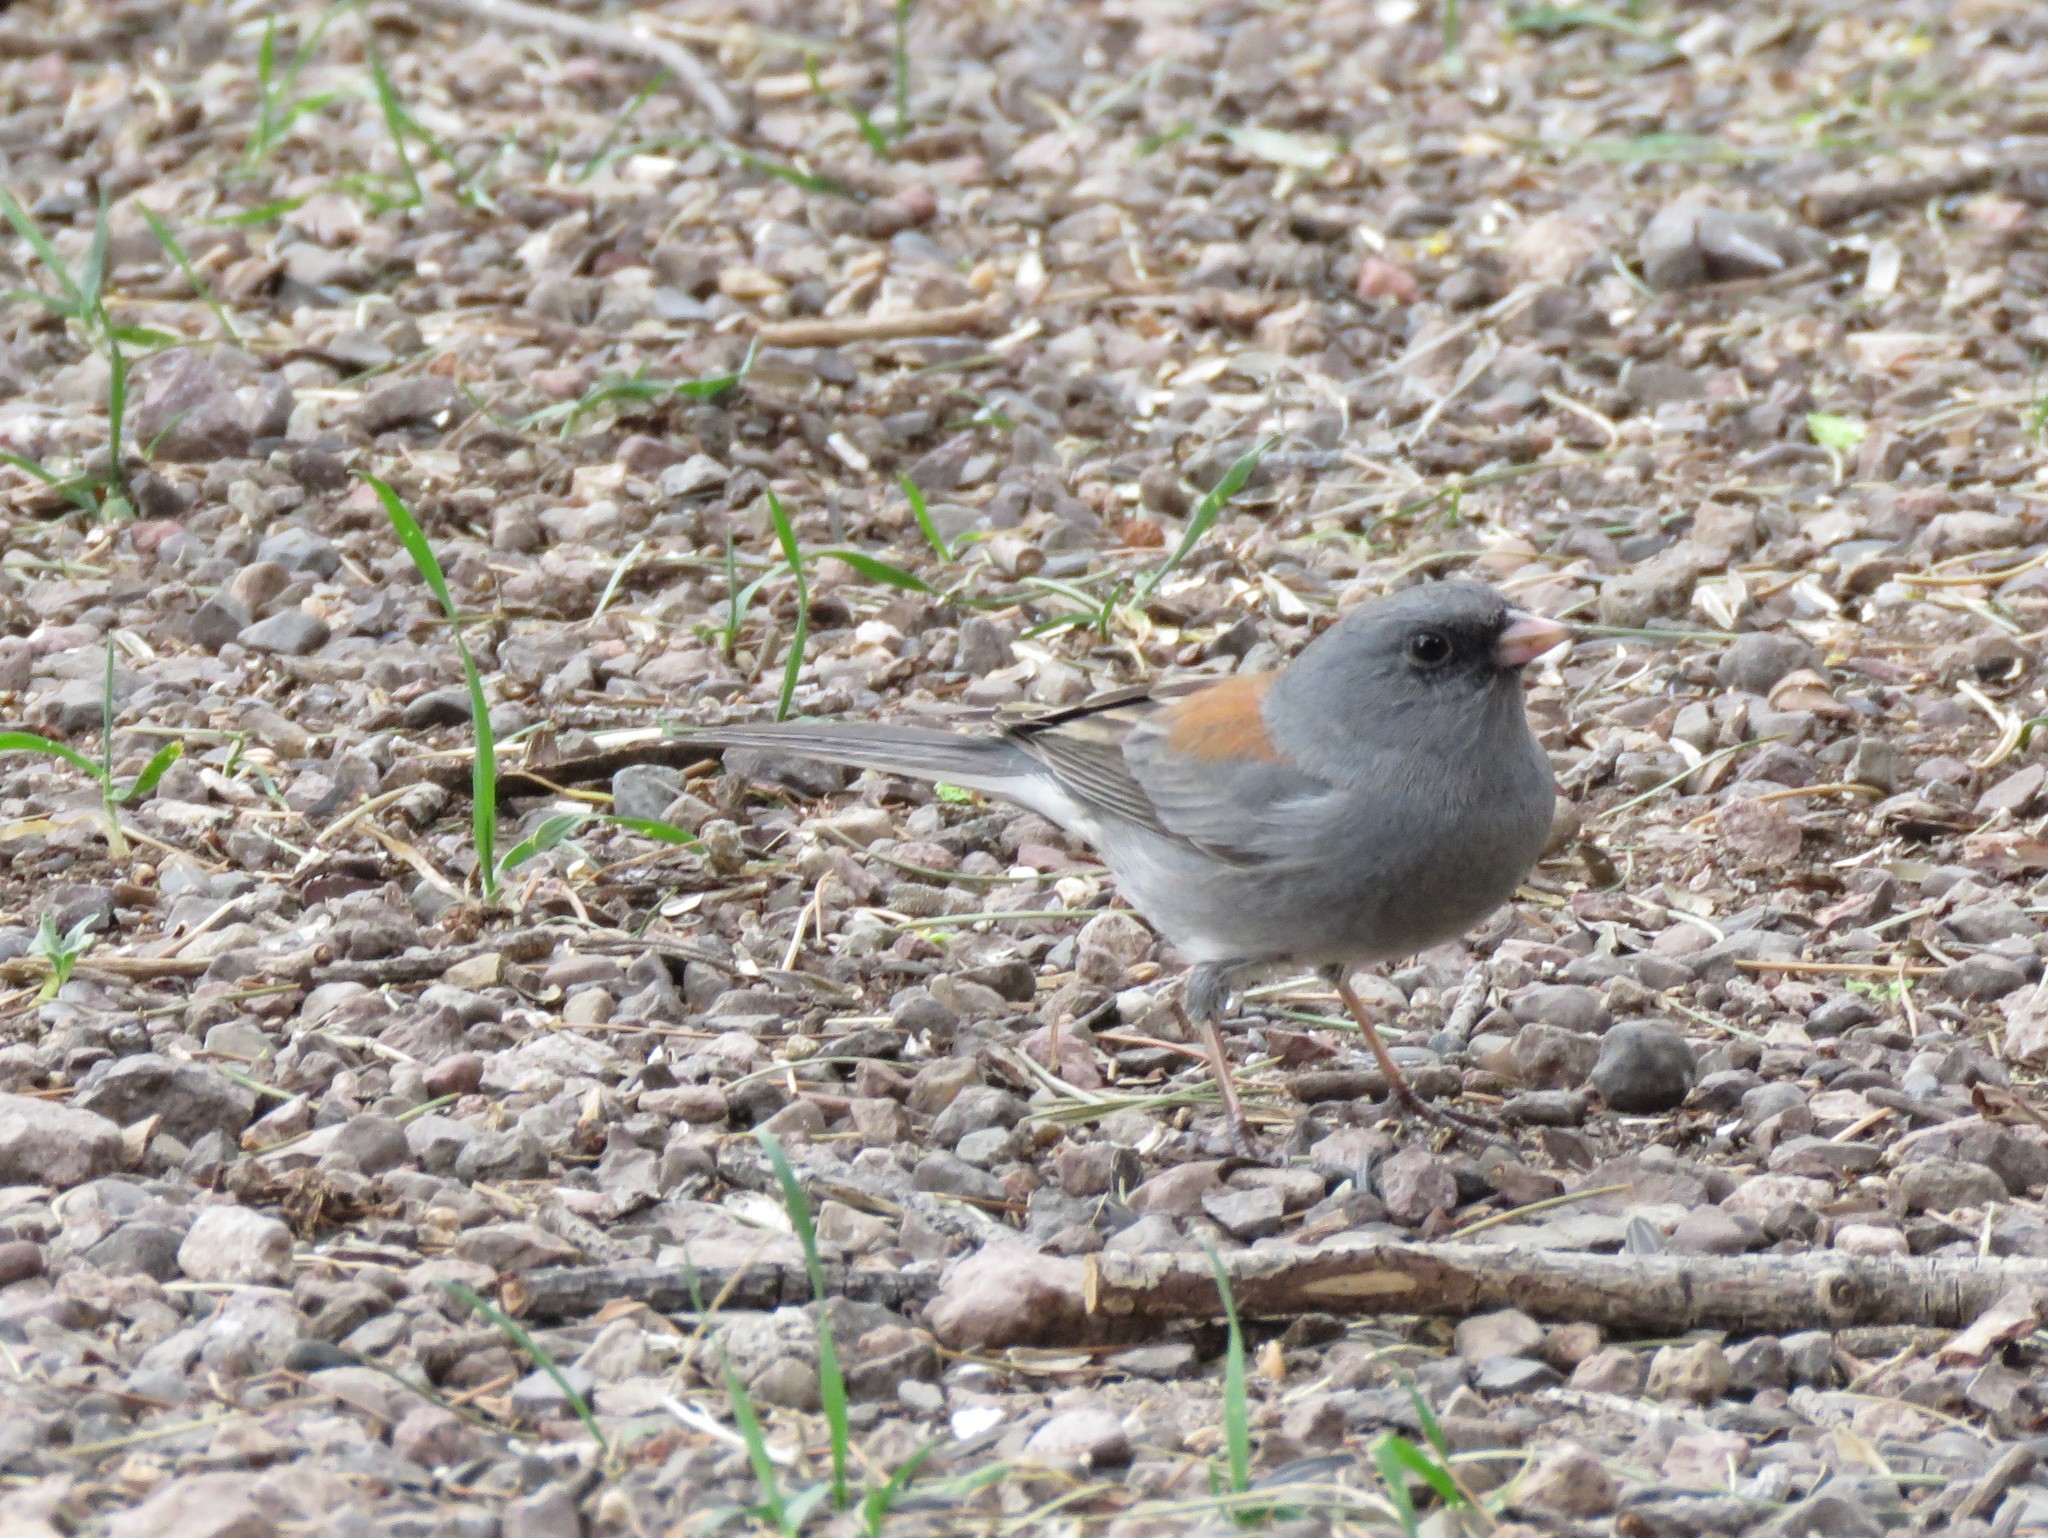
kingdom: Animalia
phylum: Chordata
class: Aves
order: Passeriformes
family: Passerellidae
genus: Junco
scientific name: Junco hyemalis
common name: Dark-eyed junco
